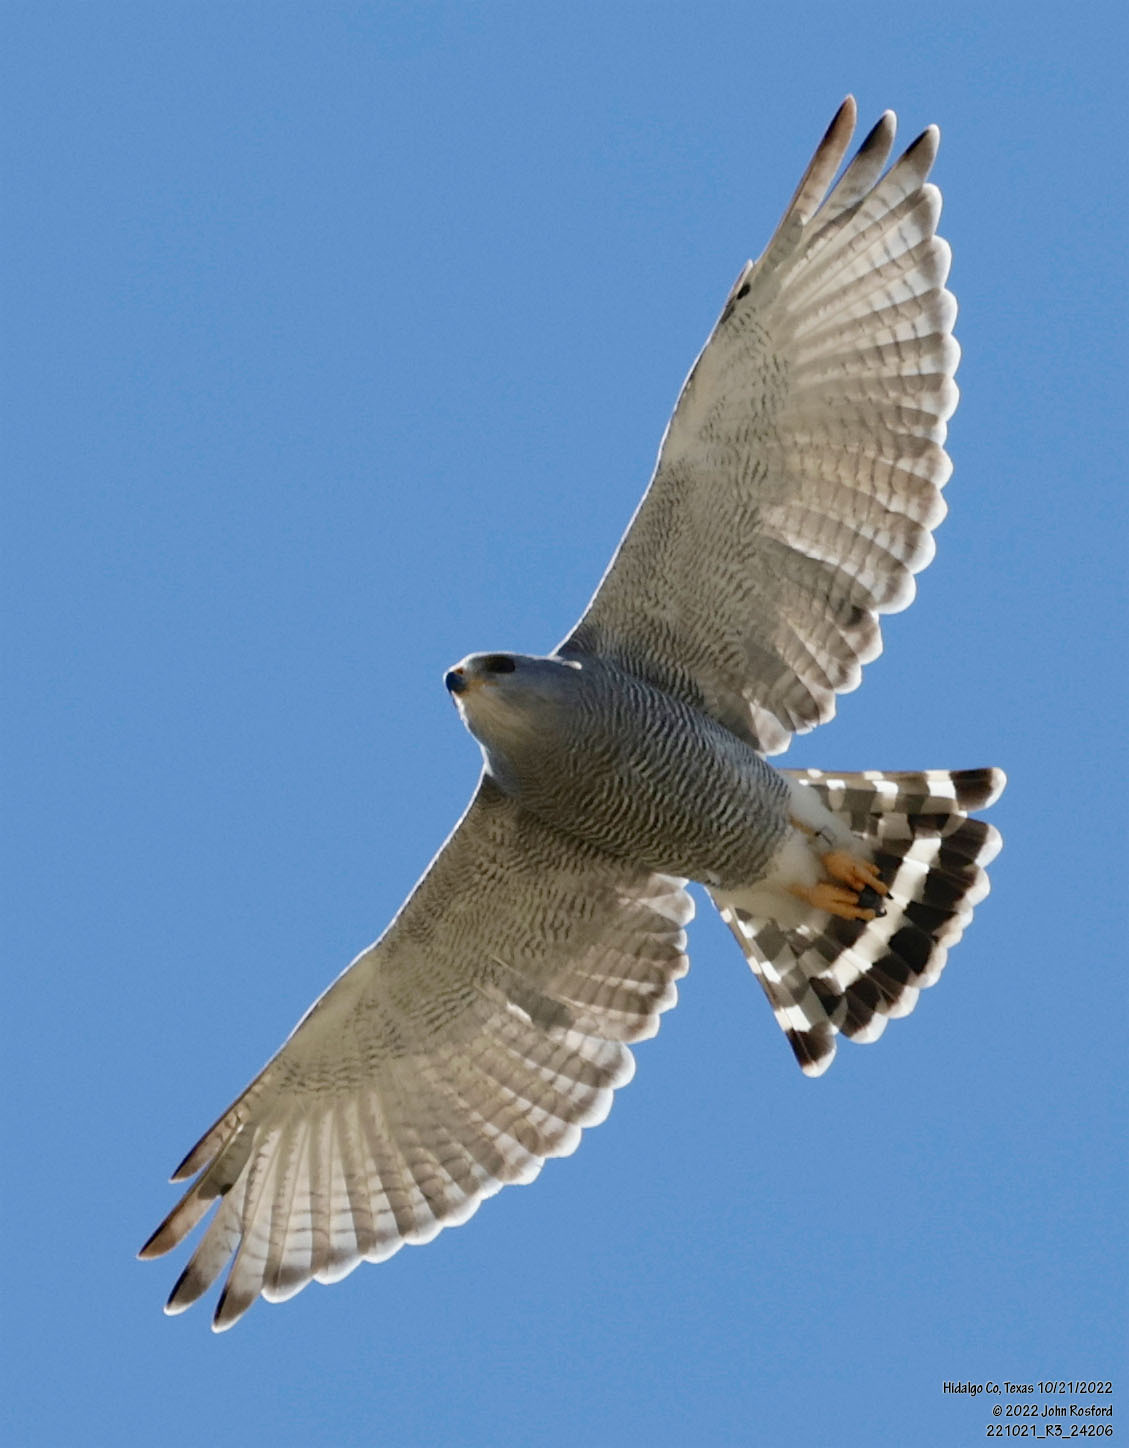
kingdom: Animalia
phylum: Chordata
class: Aves
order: Accipitriformes
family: Accipitridae
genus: Buteo
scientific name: Buteo nitidus
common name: Grey-lined hawk
